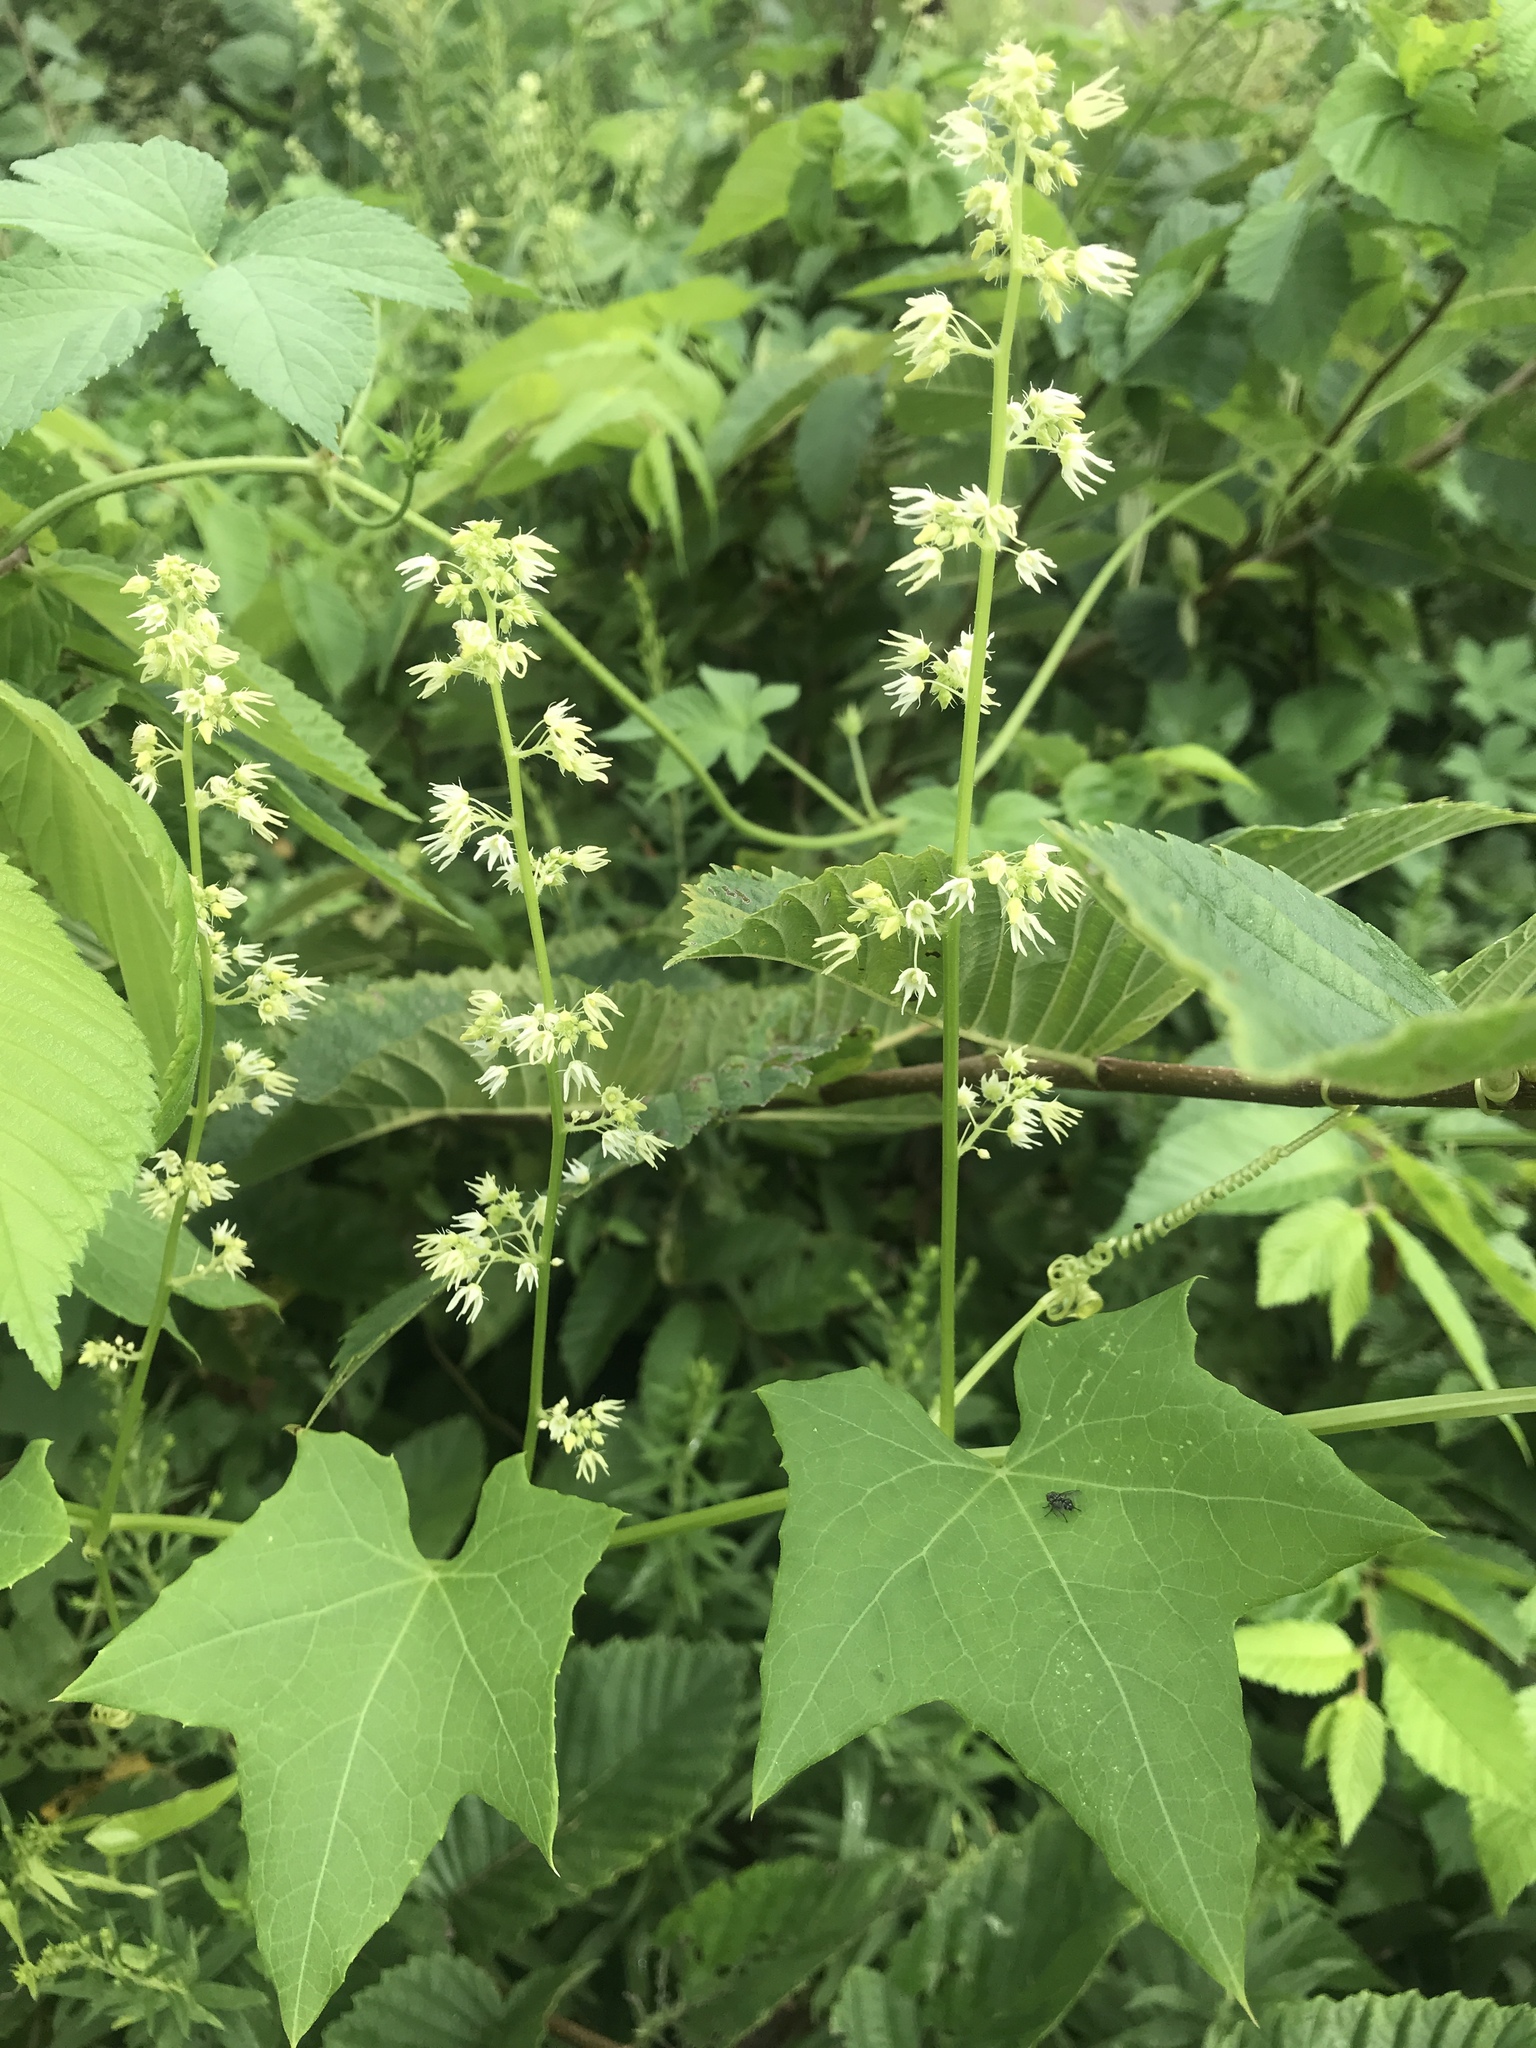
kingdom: Plantae
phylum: Tracheophyta
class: Magnoliopsida
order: Cucurbitales
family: Cucurbitaceae
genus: Echinocystis
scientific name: Echinocystis lobata
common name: Wild cucumber
